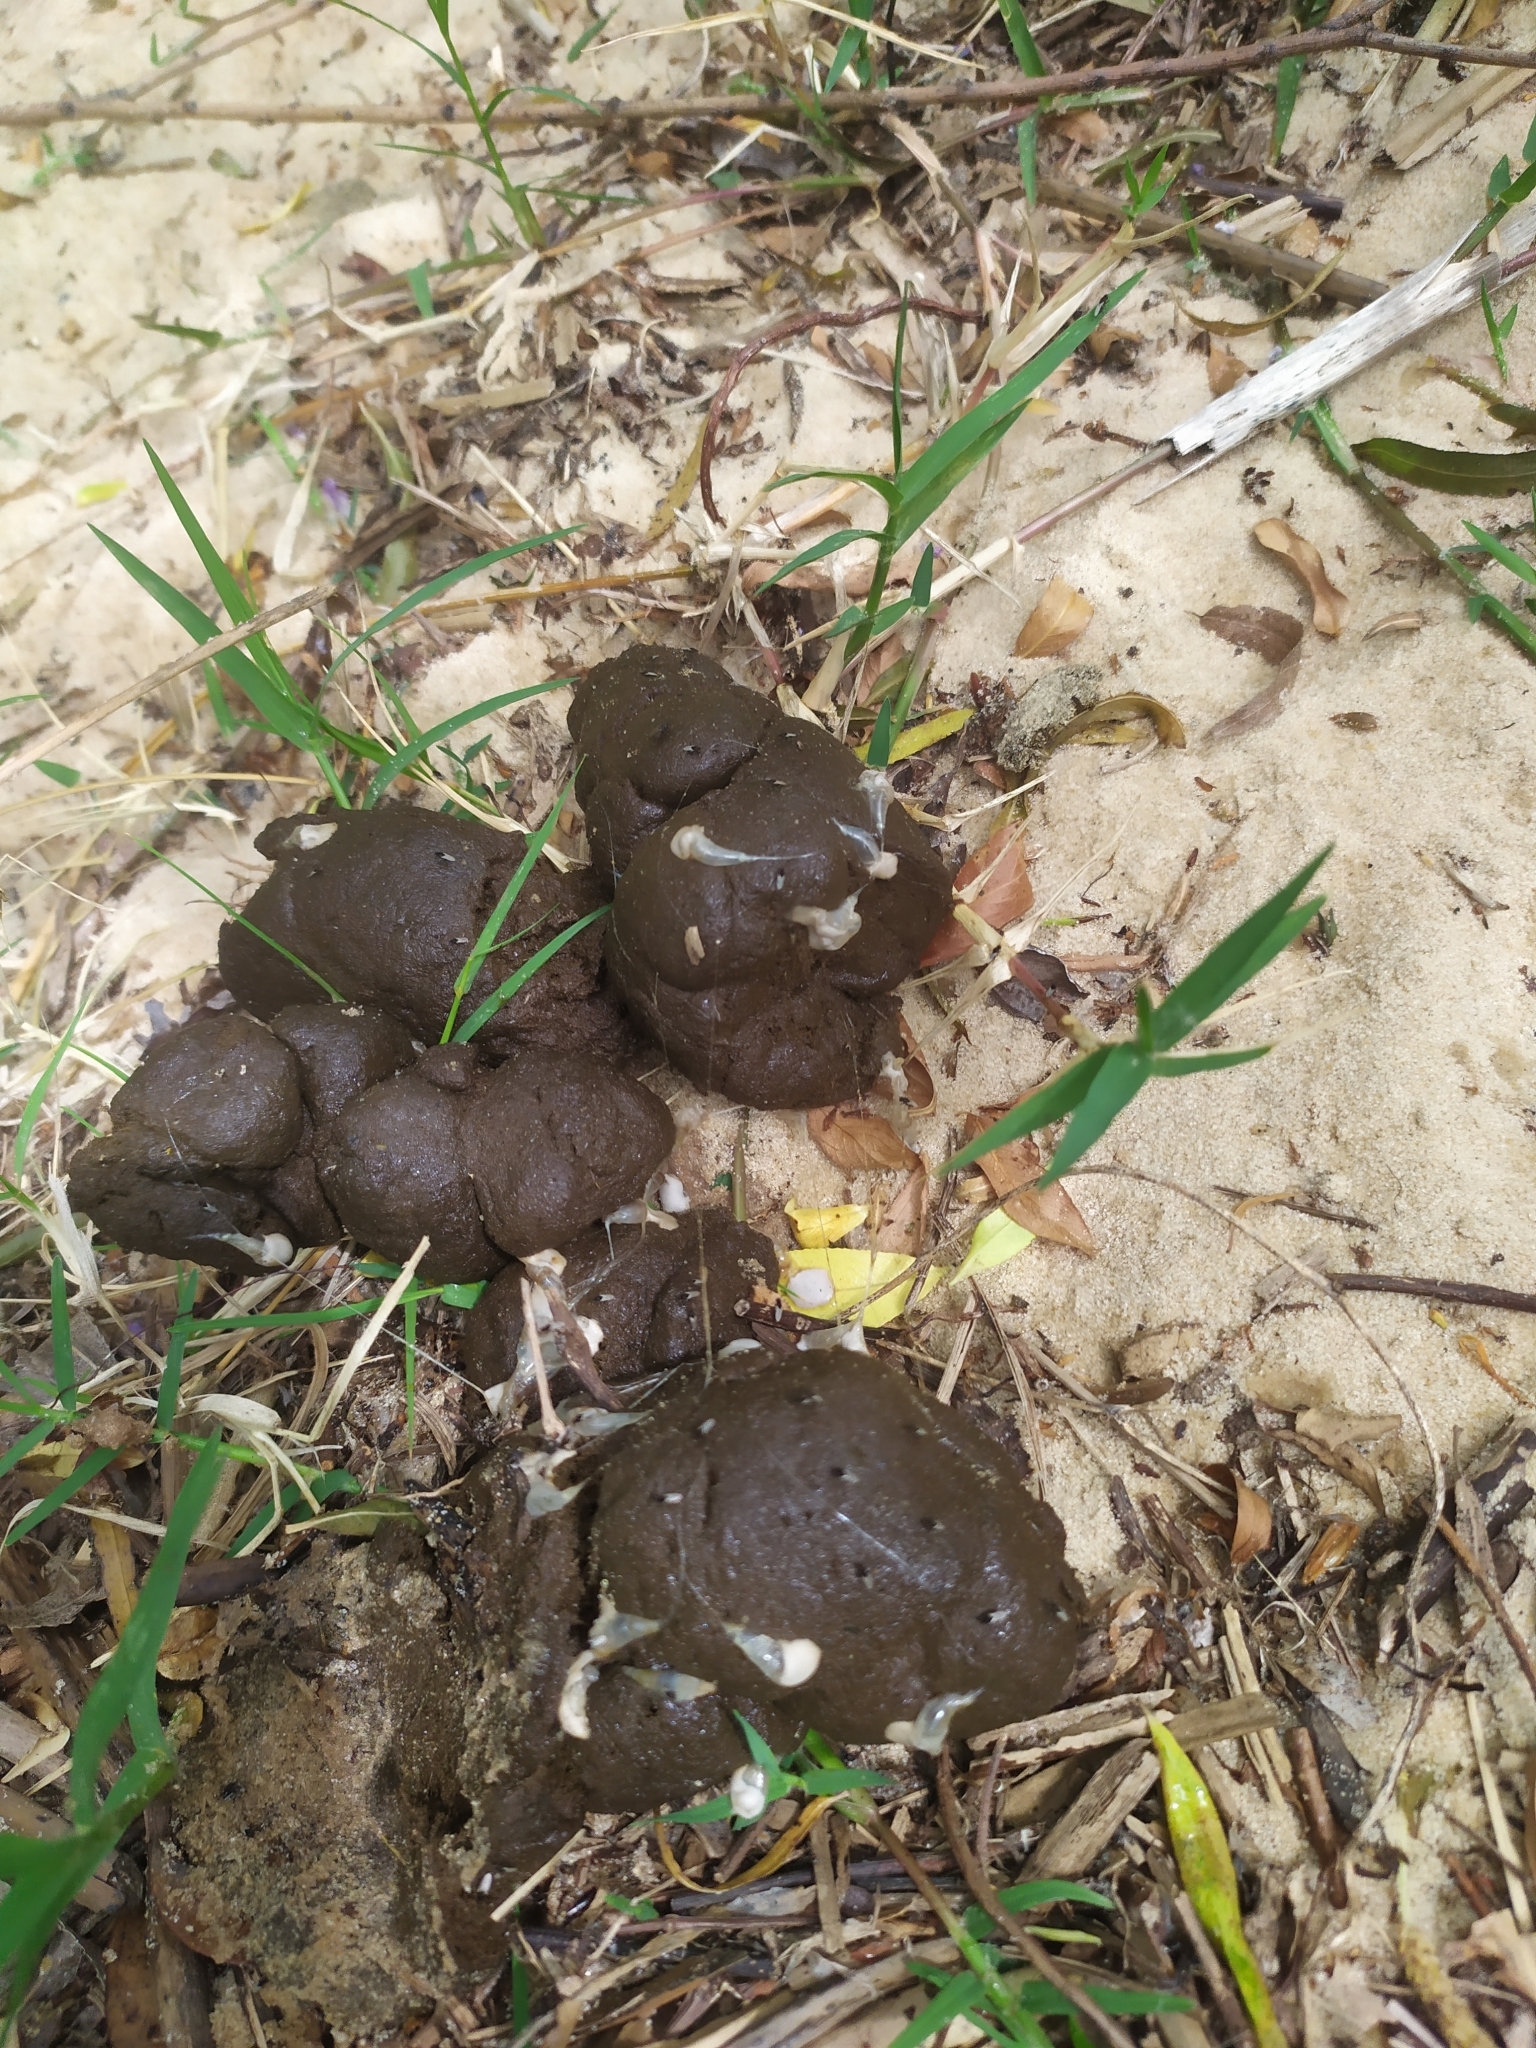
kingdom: Animalia
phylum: Chordata
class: Mammalia
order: Rodentia
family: Caviidae
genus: Hydrochoerus
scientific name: Hydrochoerus hydrochaeris
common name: Capybara
